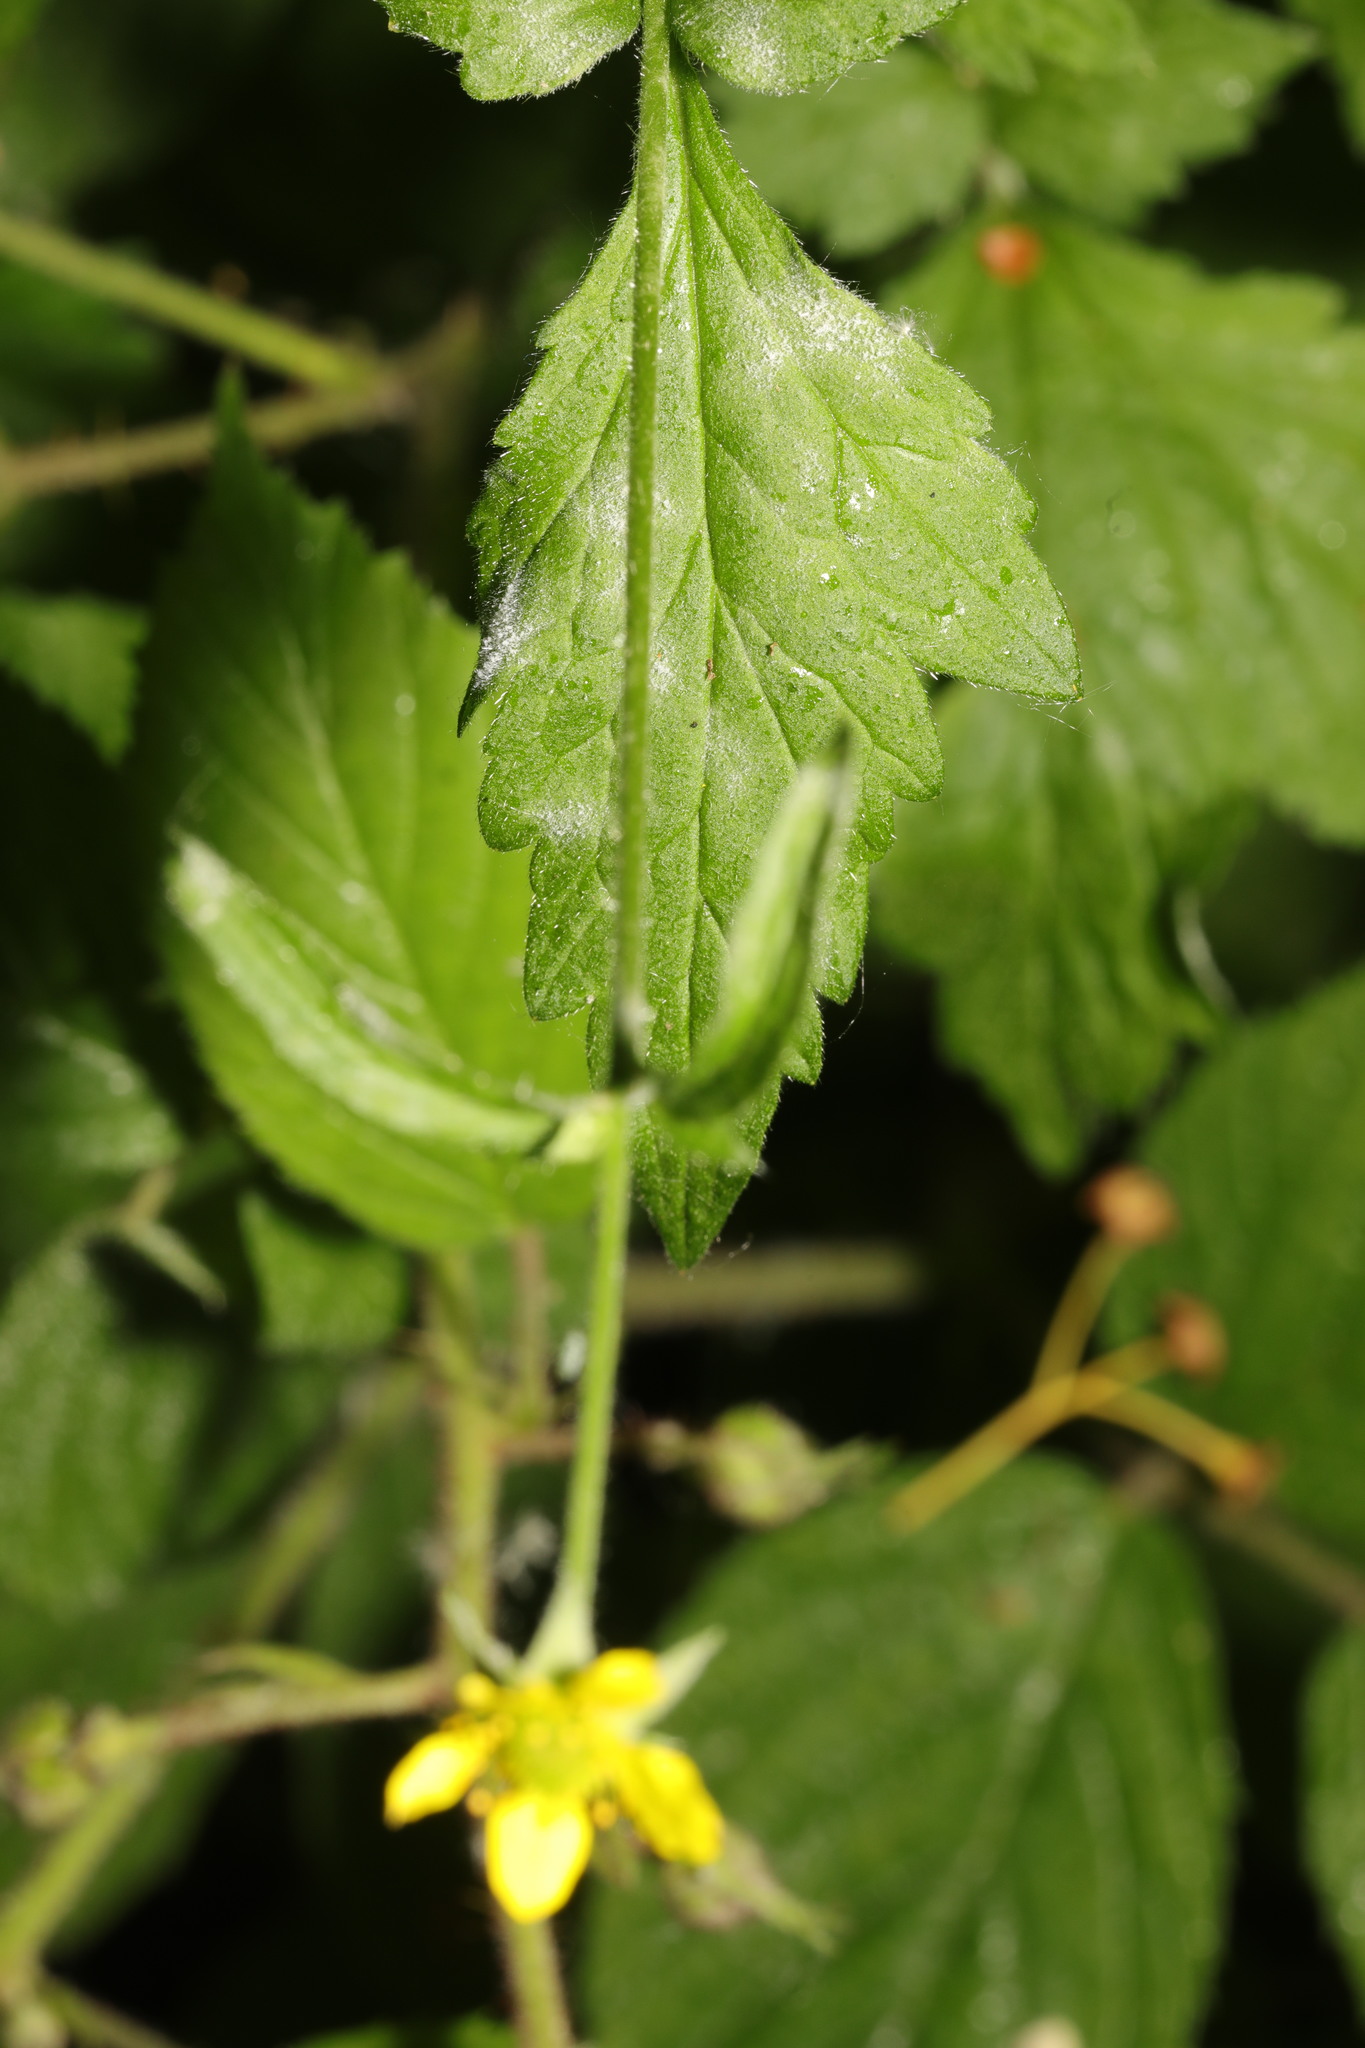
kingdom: Fungi
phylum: Ascomycota
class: Leotiomycetes
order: Helotiales
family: Erysiphaceae
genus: Podosphaera
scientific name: Podosphaera aphanis
